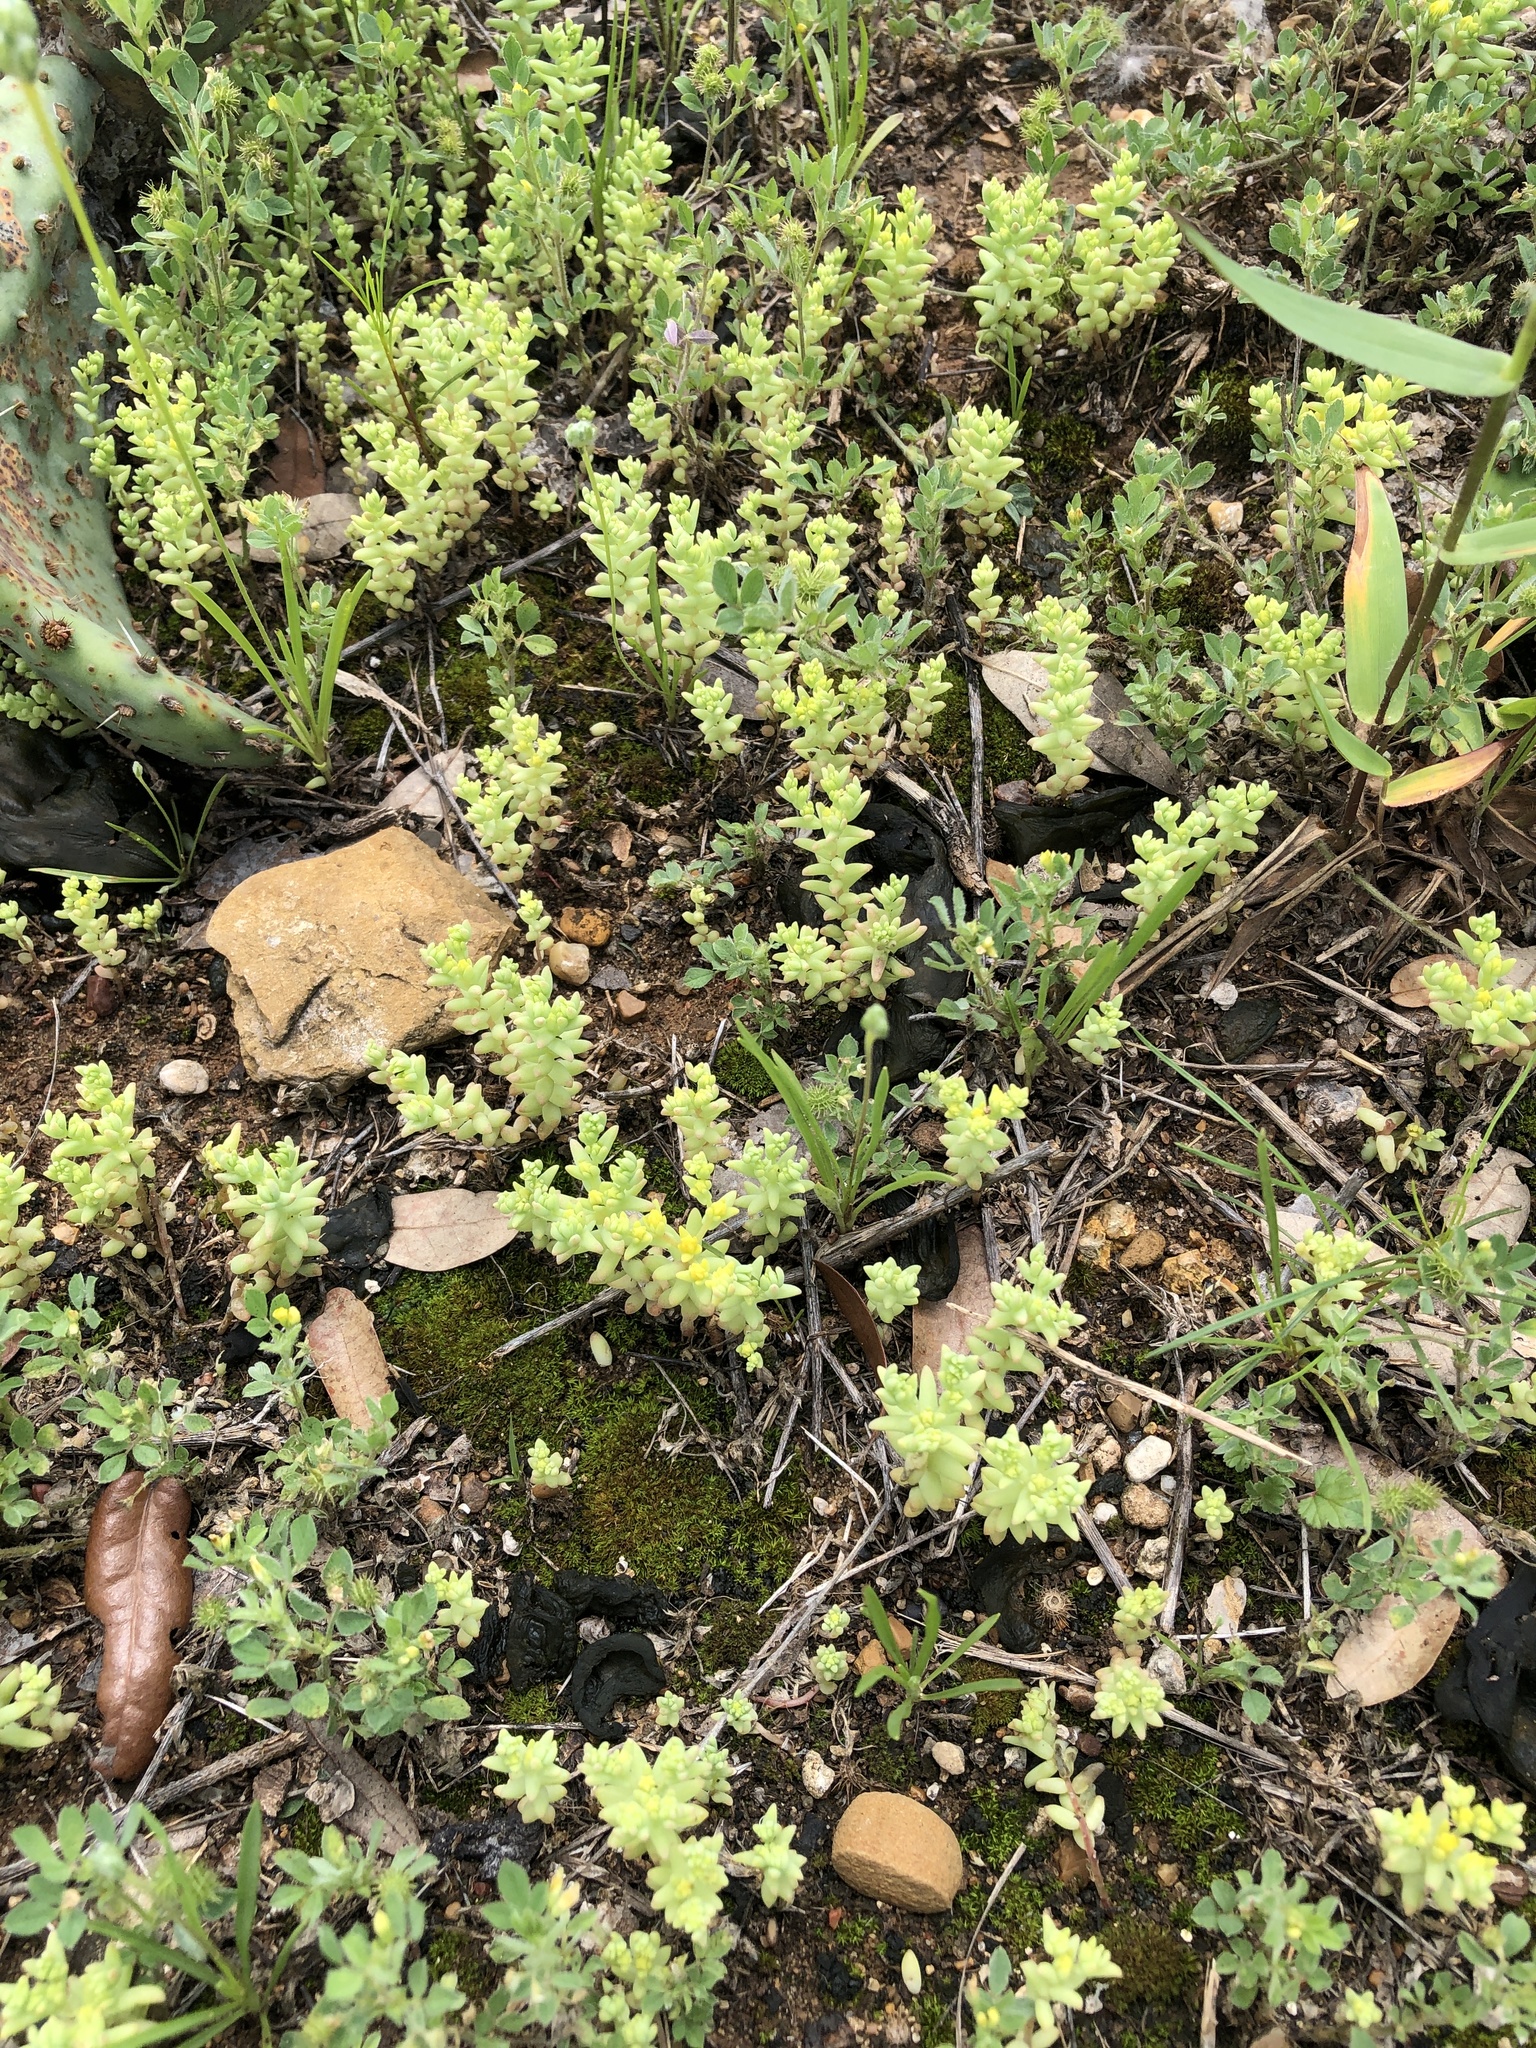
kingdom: Plantae
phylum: Tracheophyta
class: Magnoliopsida
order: Saxifragales
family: Crassulaceae
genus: Sedum
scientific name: Sedum nuttallii
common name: Yellow stonecrop
